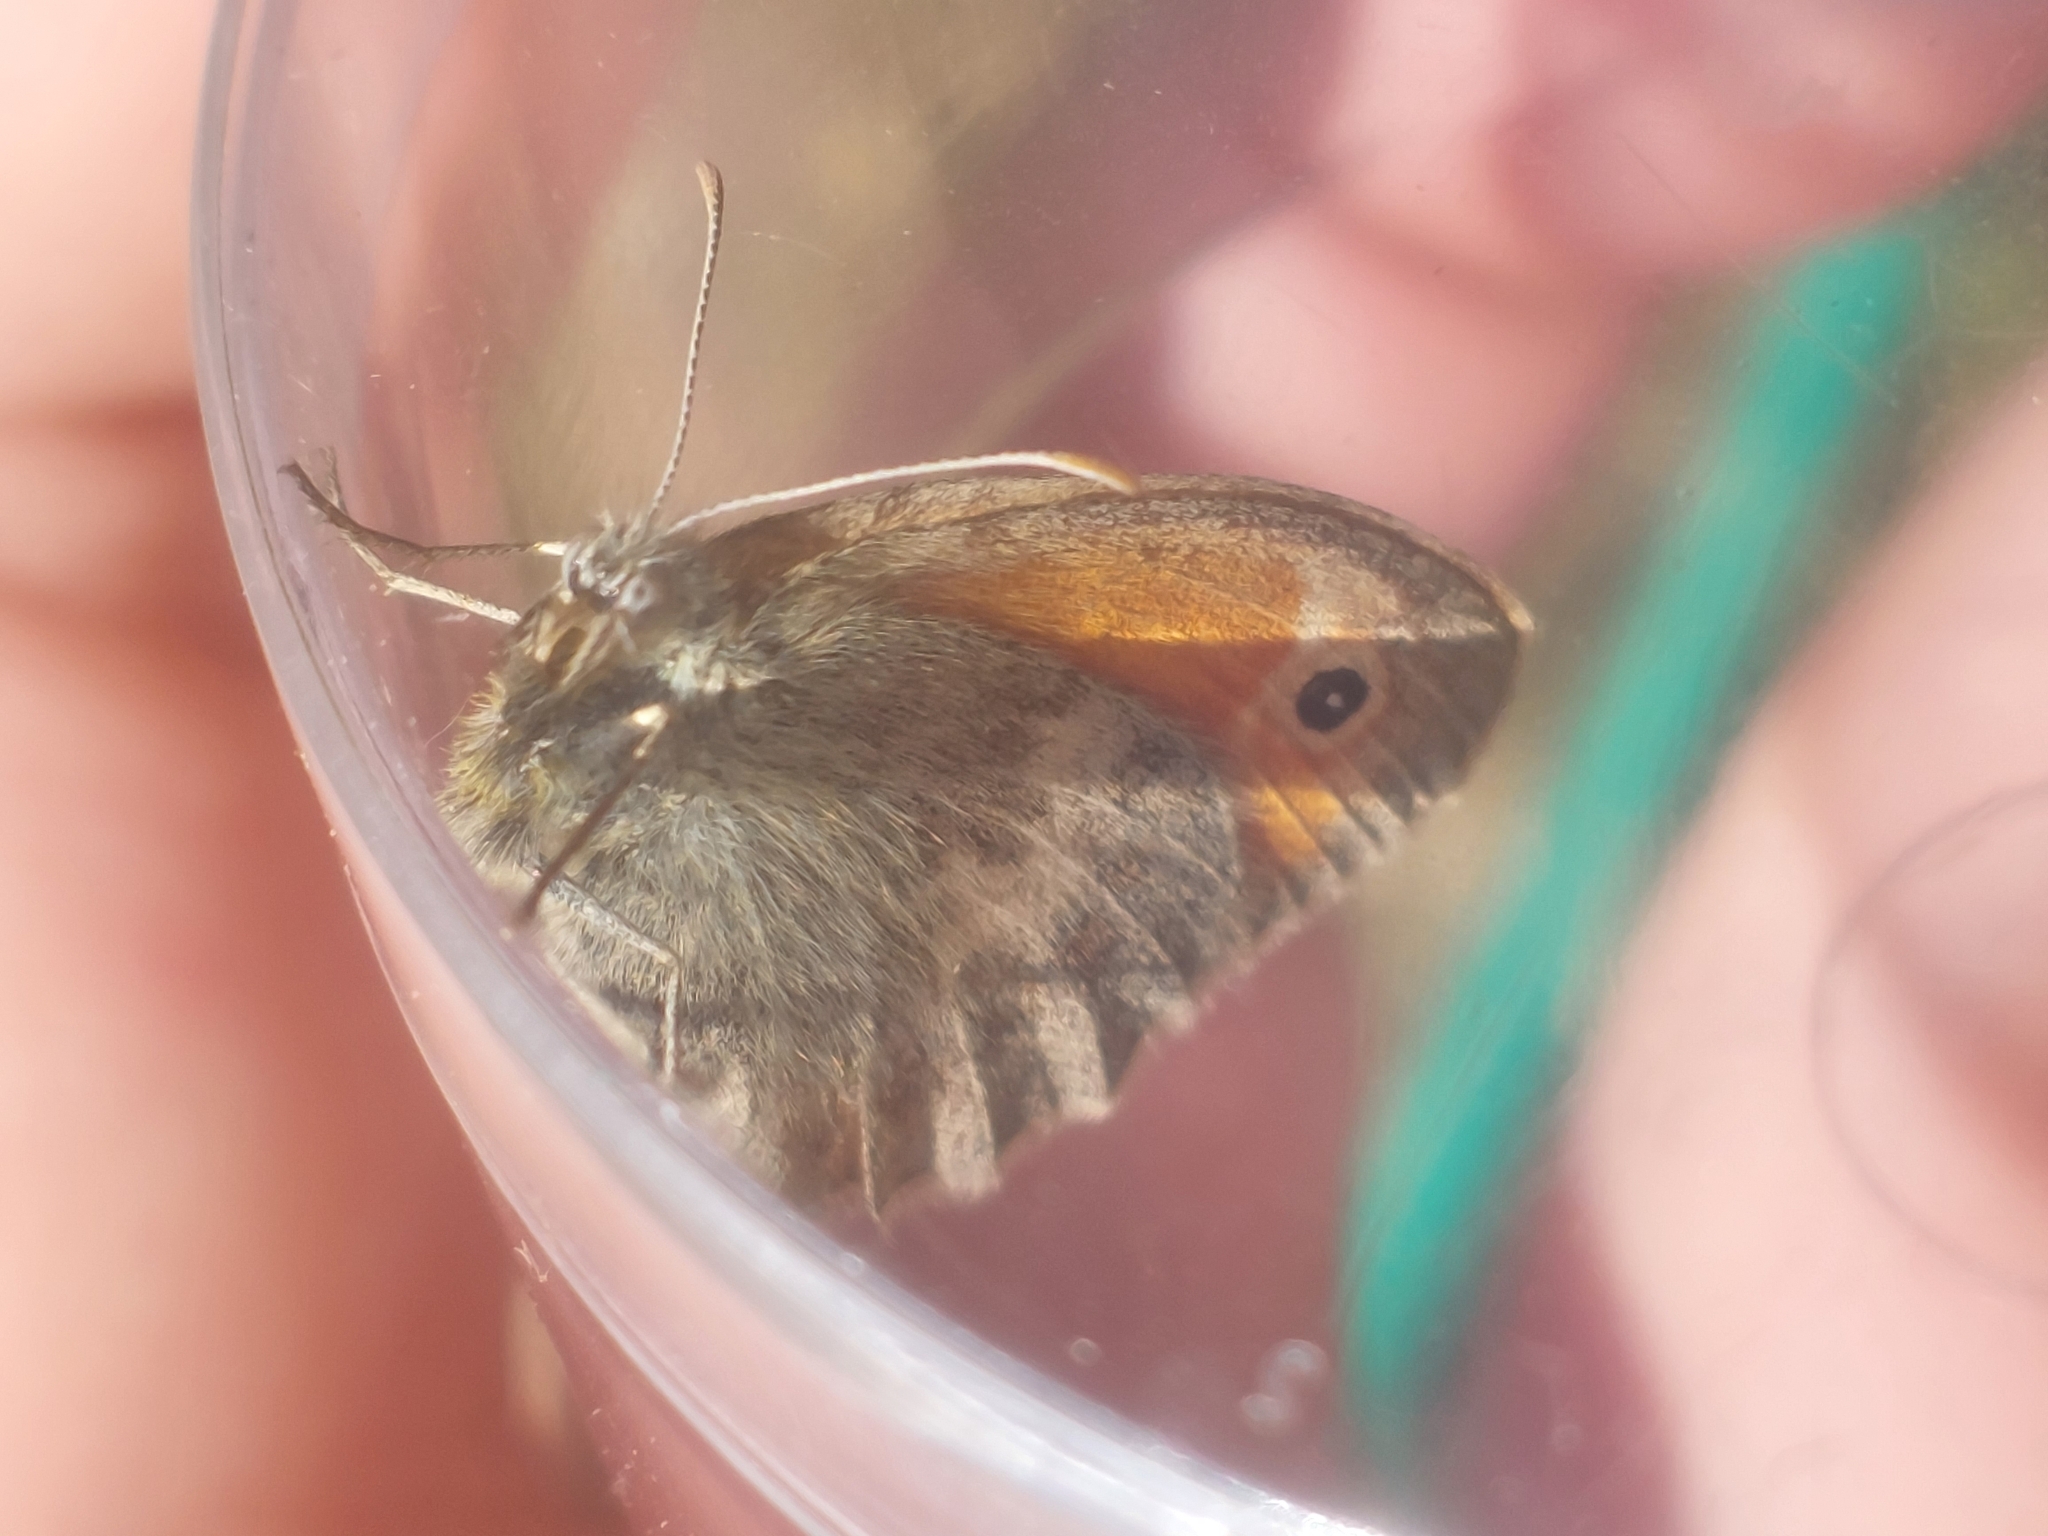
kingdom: Animalia
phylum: Arthropoda
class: Insecta
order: Lepidoptera
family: Nymphalidae
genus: Coenonympha
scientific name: Coenonympha pamphilus
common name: Small heath
